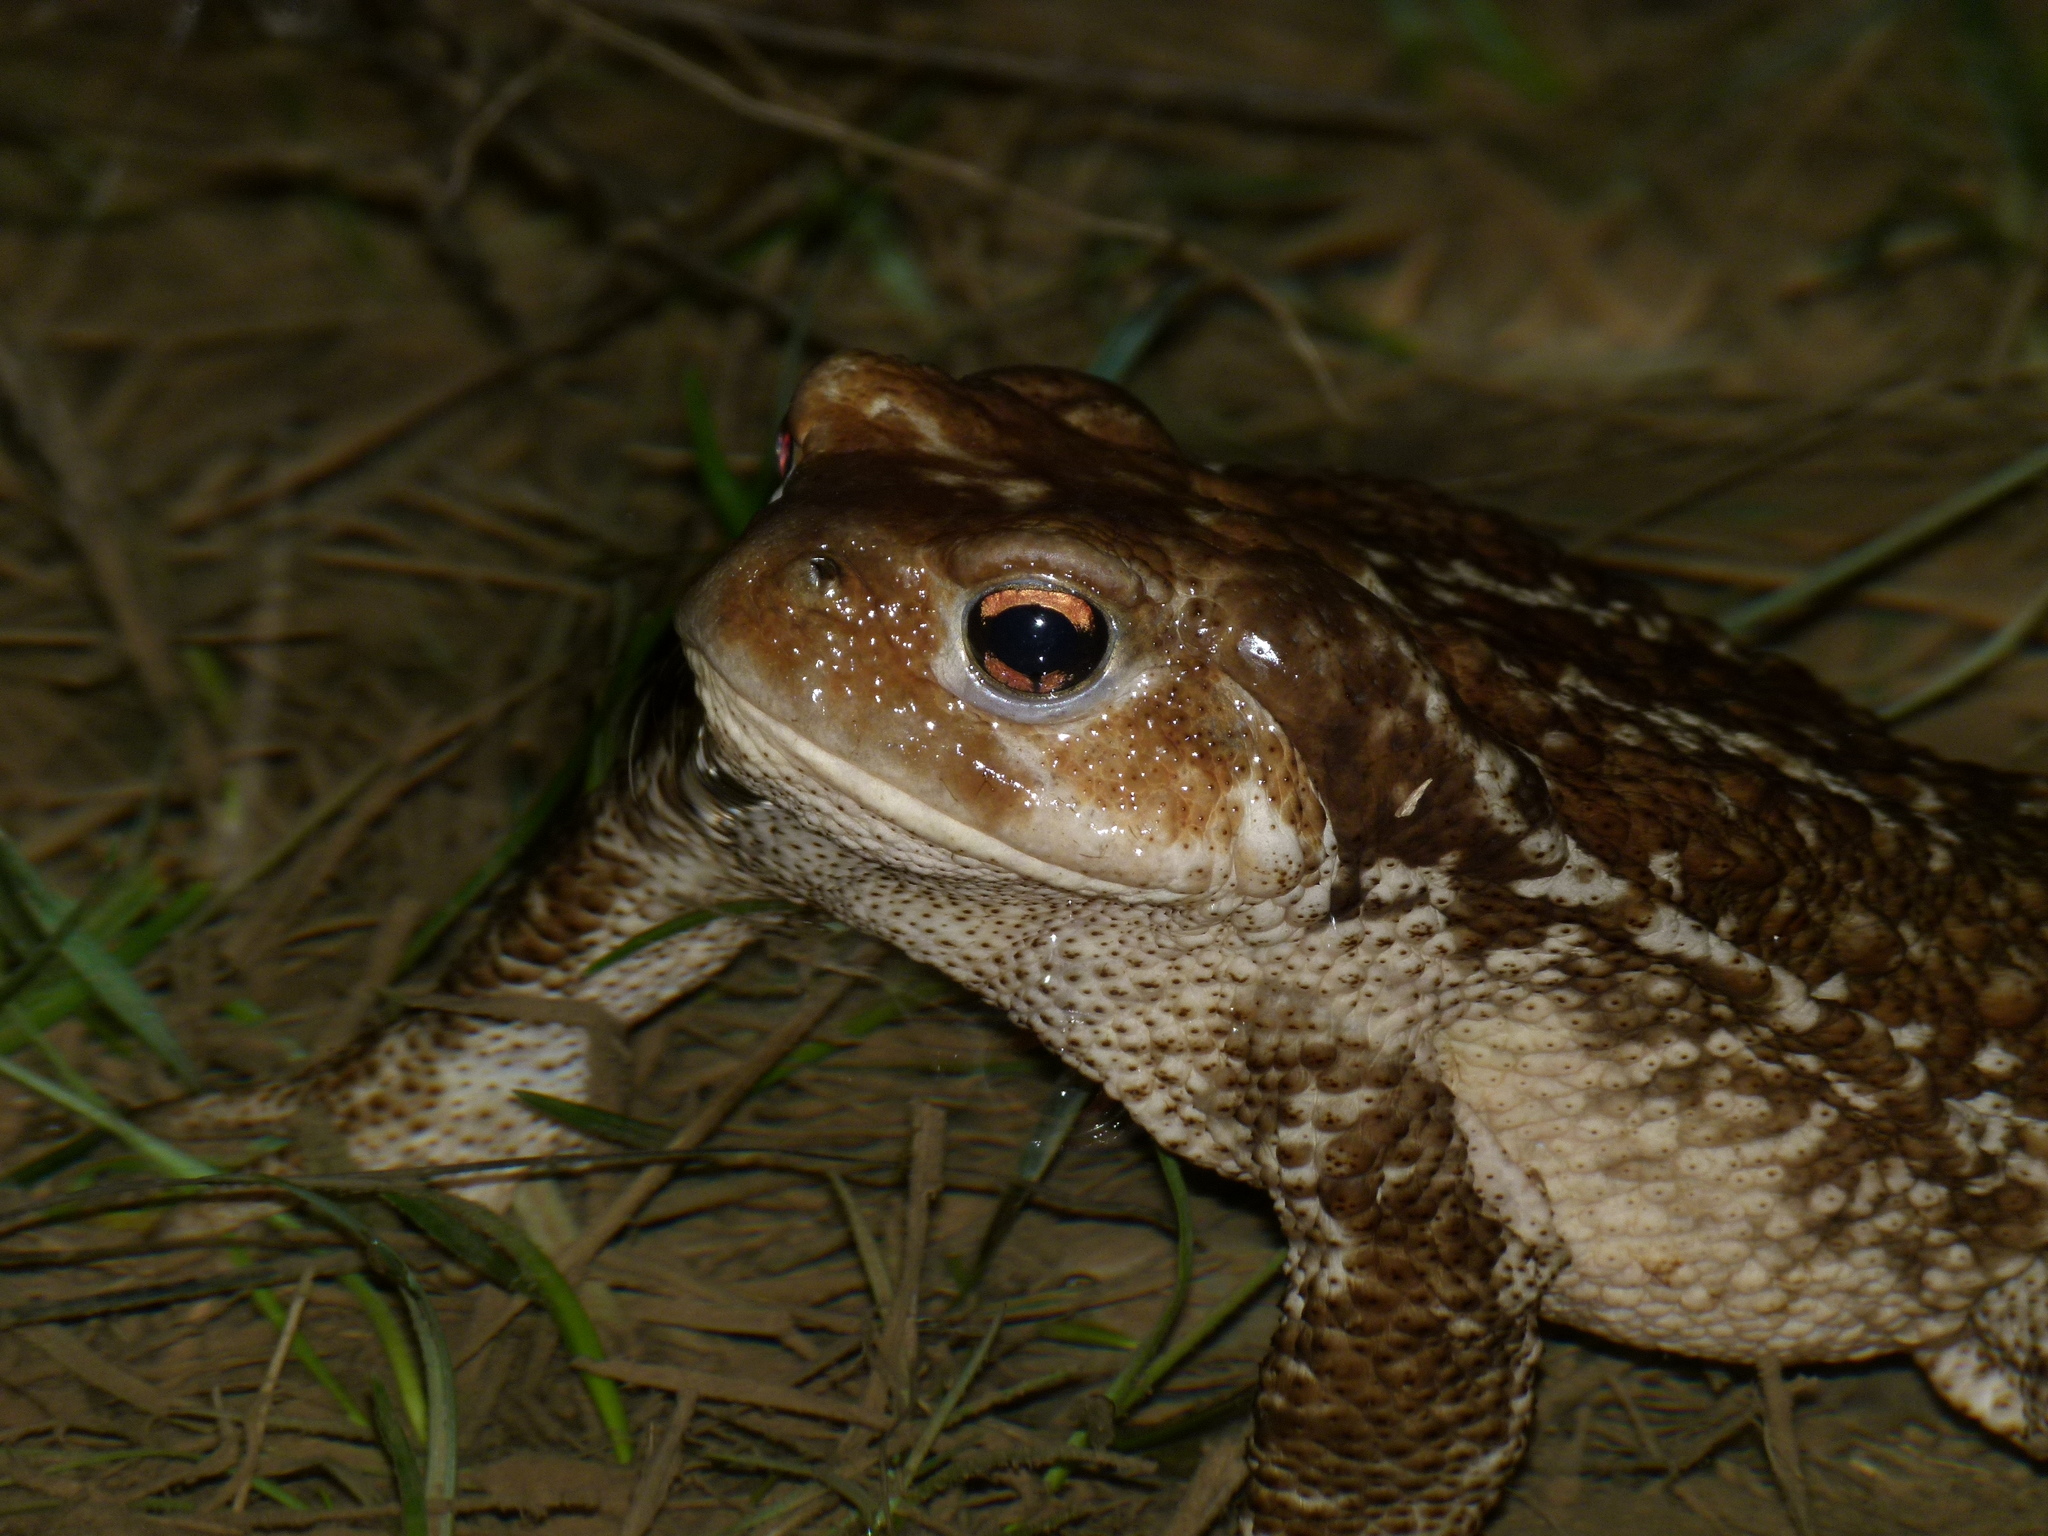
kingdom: Animalia
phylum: Chordata
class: Amphibia
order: Anura
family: Bufonidae
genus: Bufo
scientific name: Bufo spinosus
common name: Western common toad
